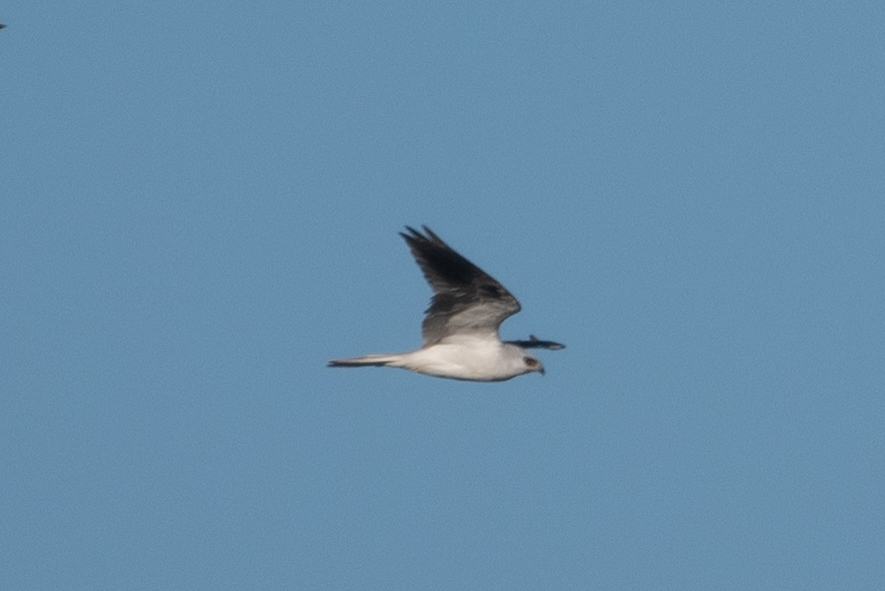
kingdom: Animalia
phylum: Chordata
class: Aves
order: Accipitriformes
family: Accipitridae
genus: Elanus
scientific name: Elanus leucurus
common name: White-tailed kite
